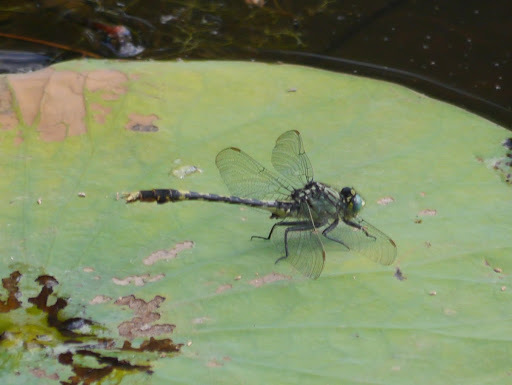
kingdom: Animalia
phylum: Arthropoda
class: Insecta
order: Odonata
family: Gomphidae
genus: Arigomphus
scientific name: Arigomphus villosipes
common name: Unicorn clubtail
